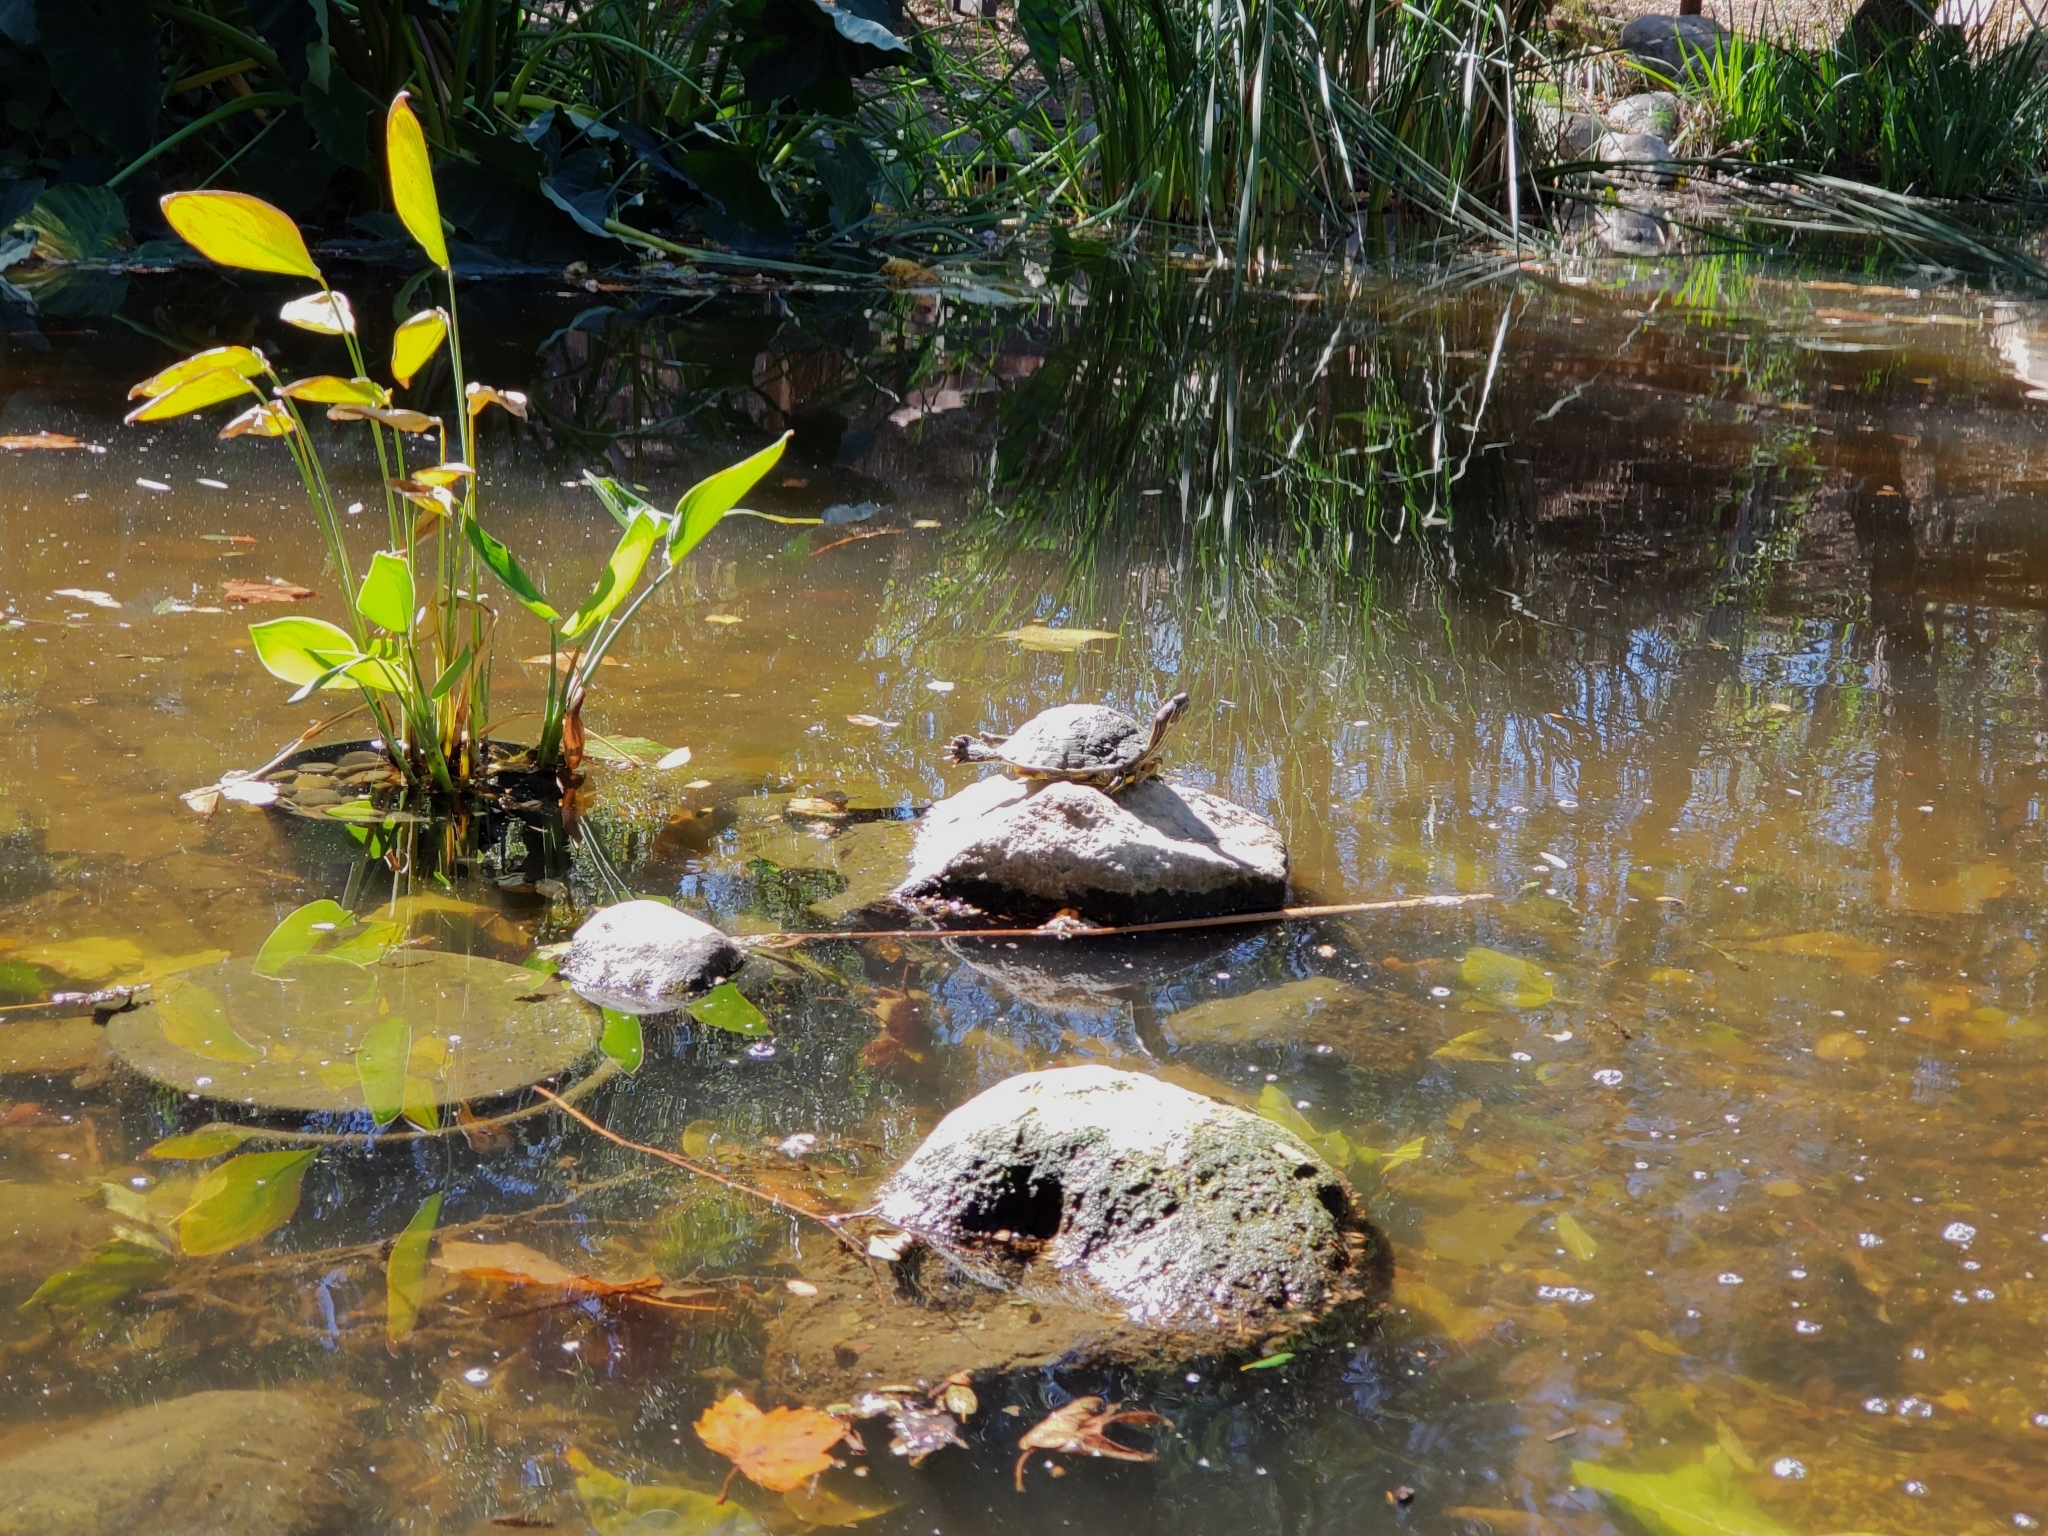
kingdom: Animalia
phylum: Chordata
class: Testudines
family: Emydidae
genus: Trachemys
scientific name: Trachemys scripta
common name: Slider
